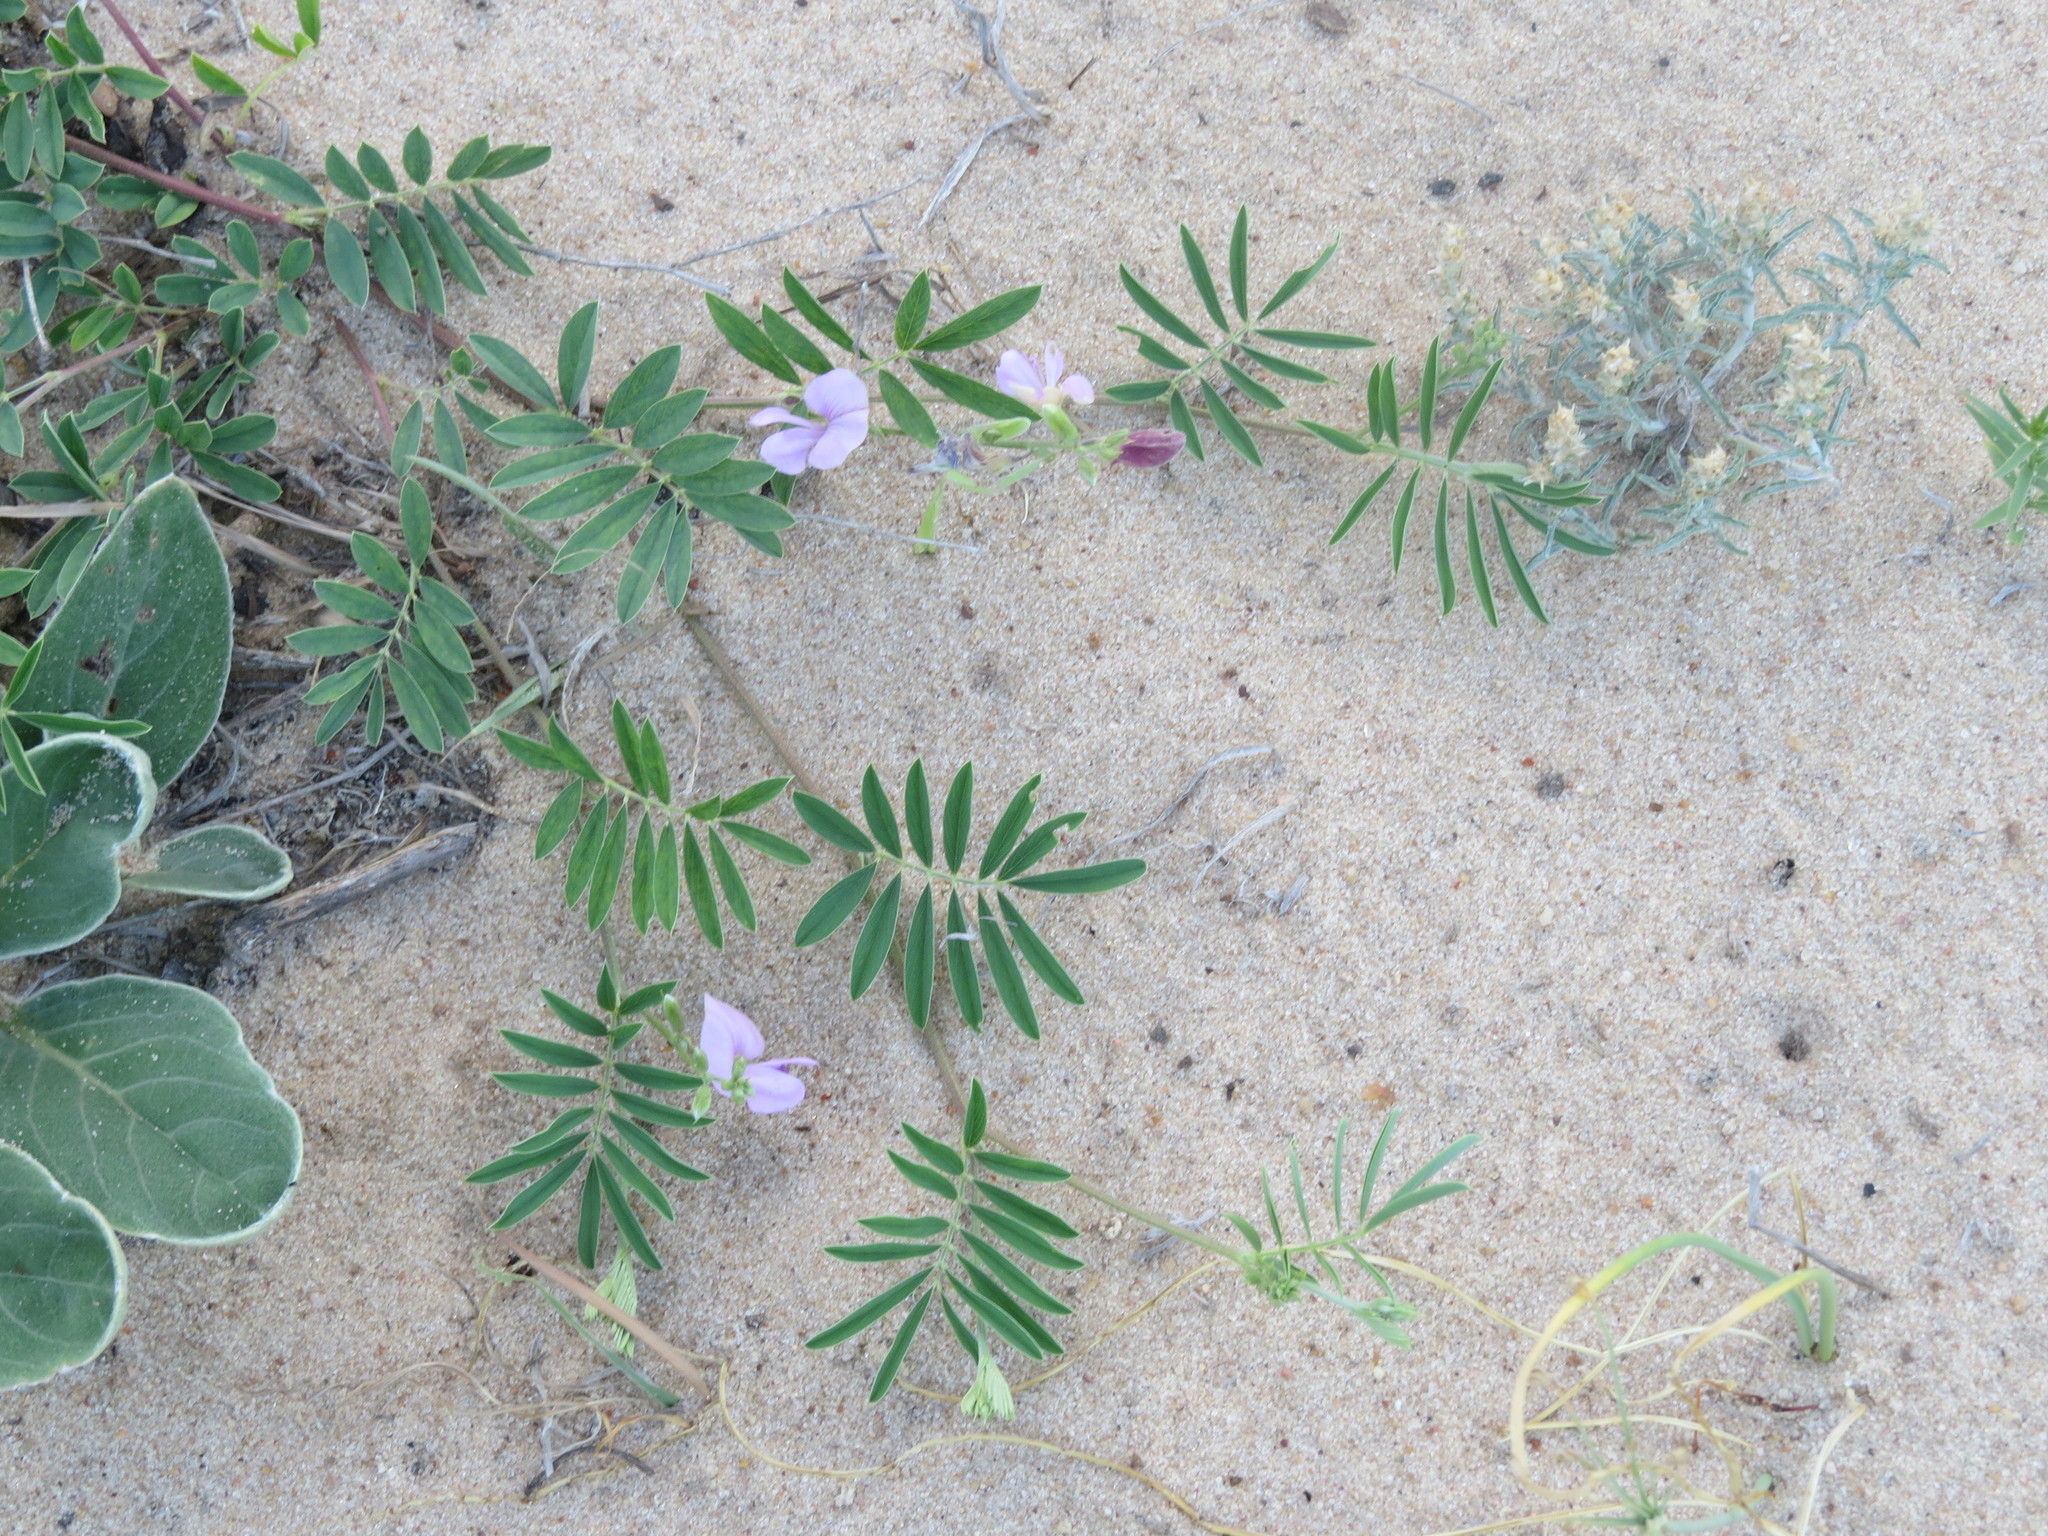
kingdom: Plantae
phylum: Tracheophyta
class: Magnoliopsida
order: Fabales
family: Fabaceae
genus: Tephrosia
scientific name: Tephrosia cinerea
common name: Ashen hoarypea
